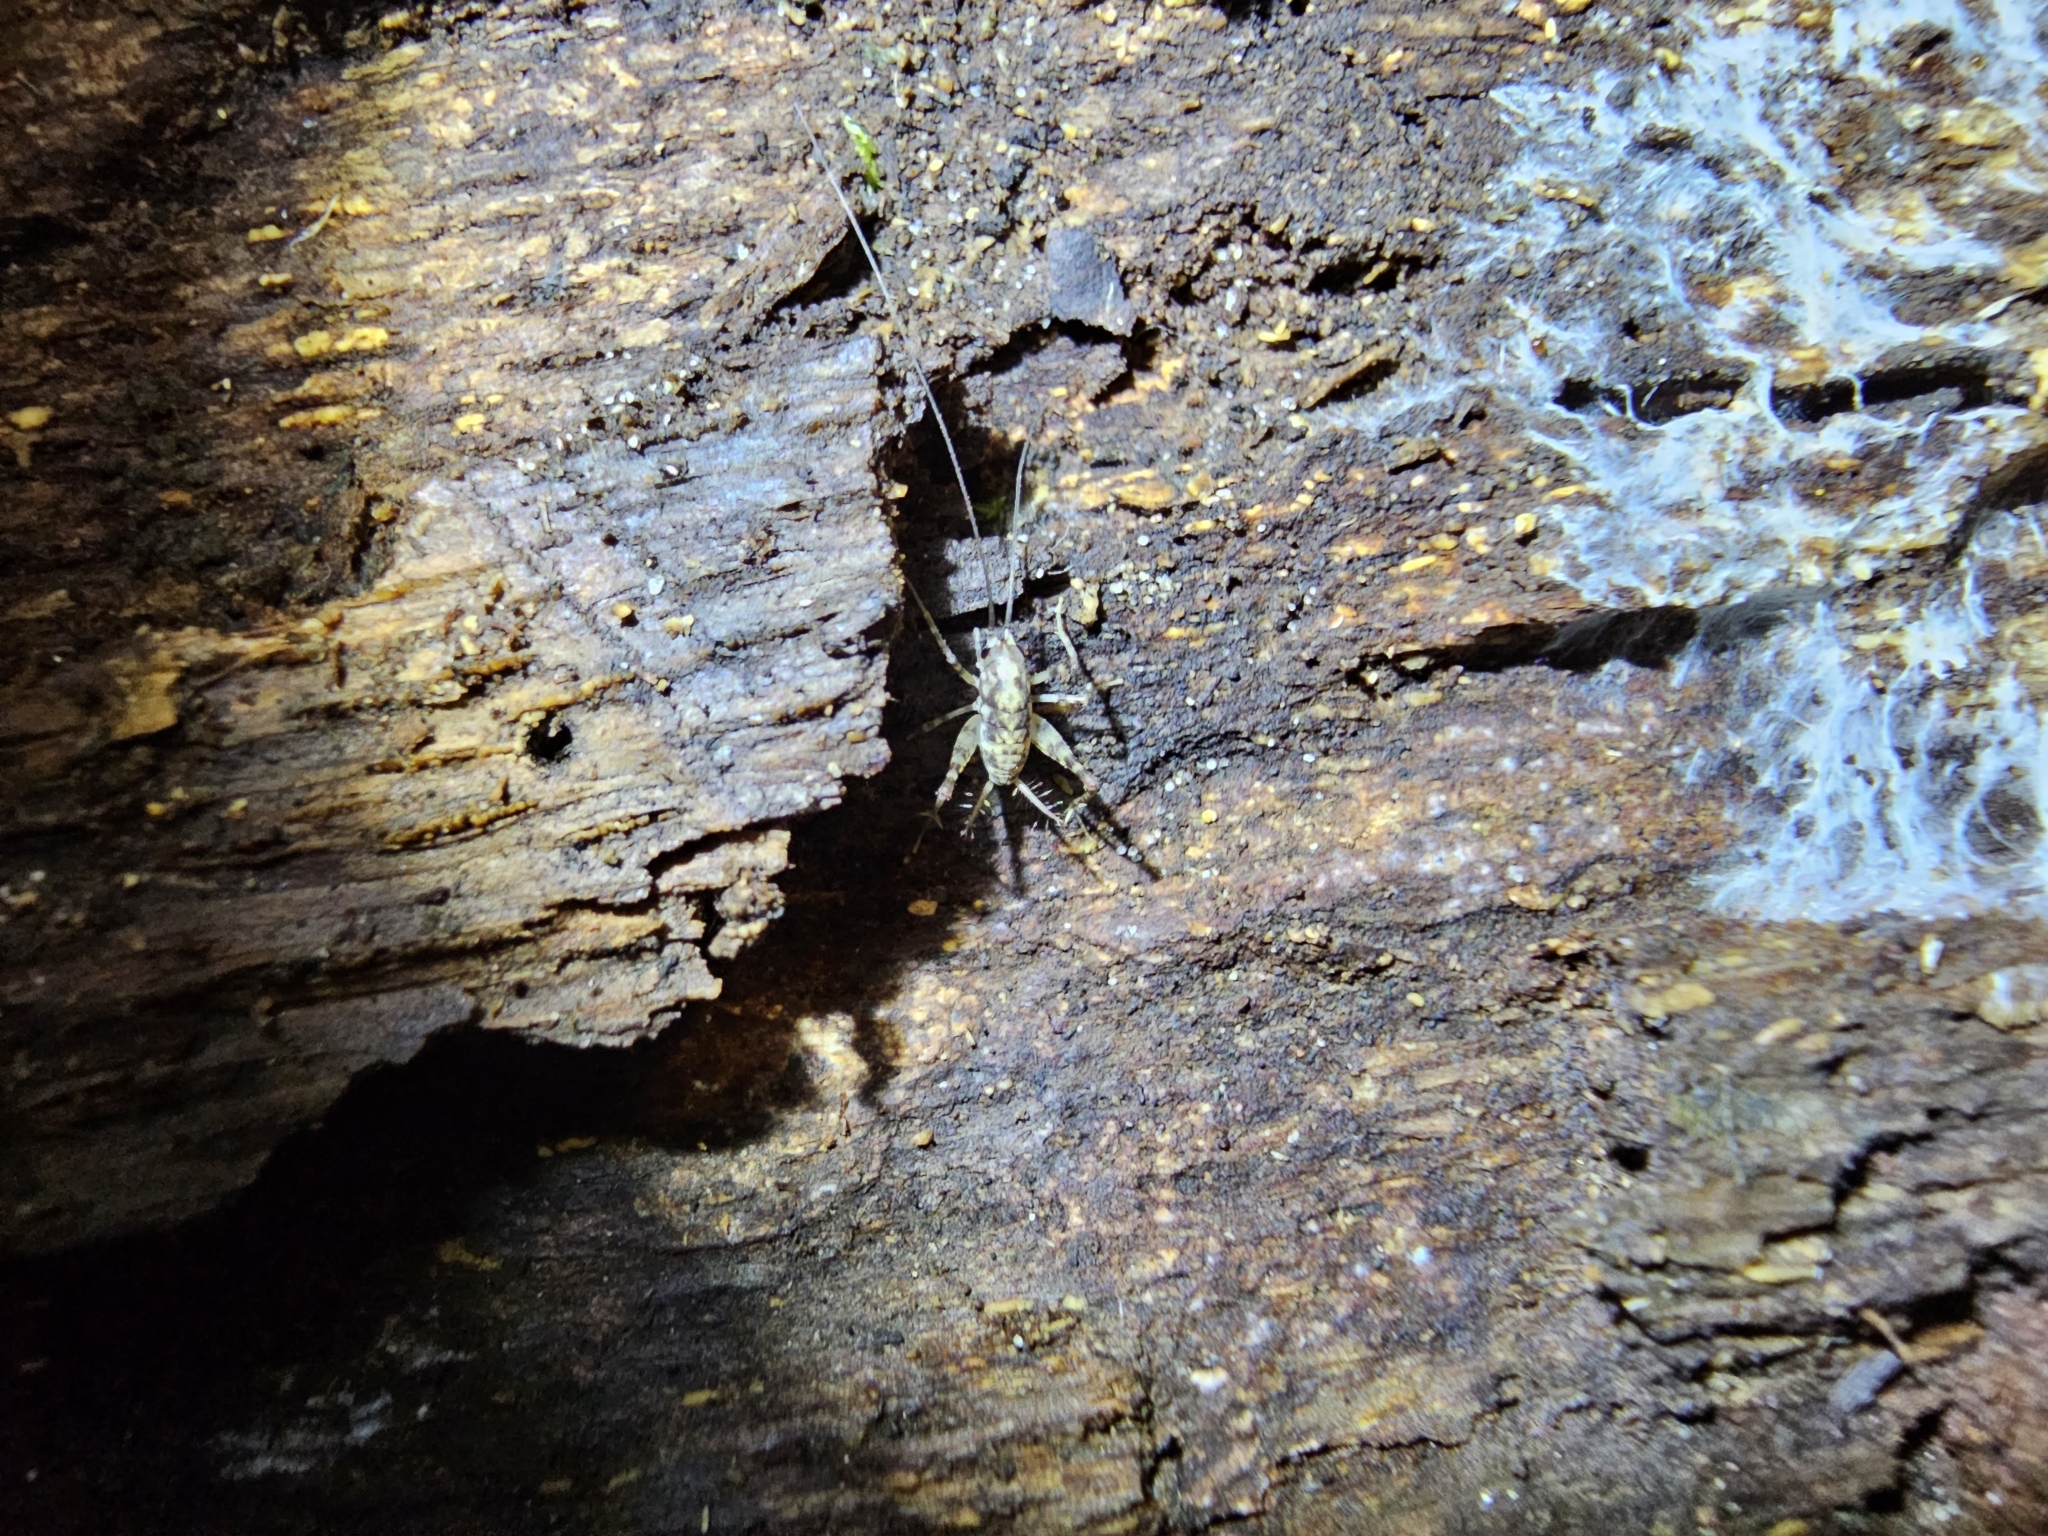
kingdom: Animalia
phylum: Arthropoda
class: Insecta
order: Orthoptera
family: Rhaphidophoridae
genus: Tachycines
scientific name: Tachycines asynamorus
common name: Greenhouse camel cricket
